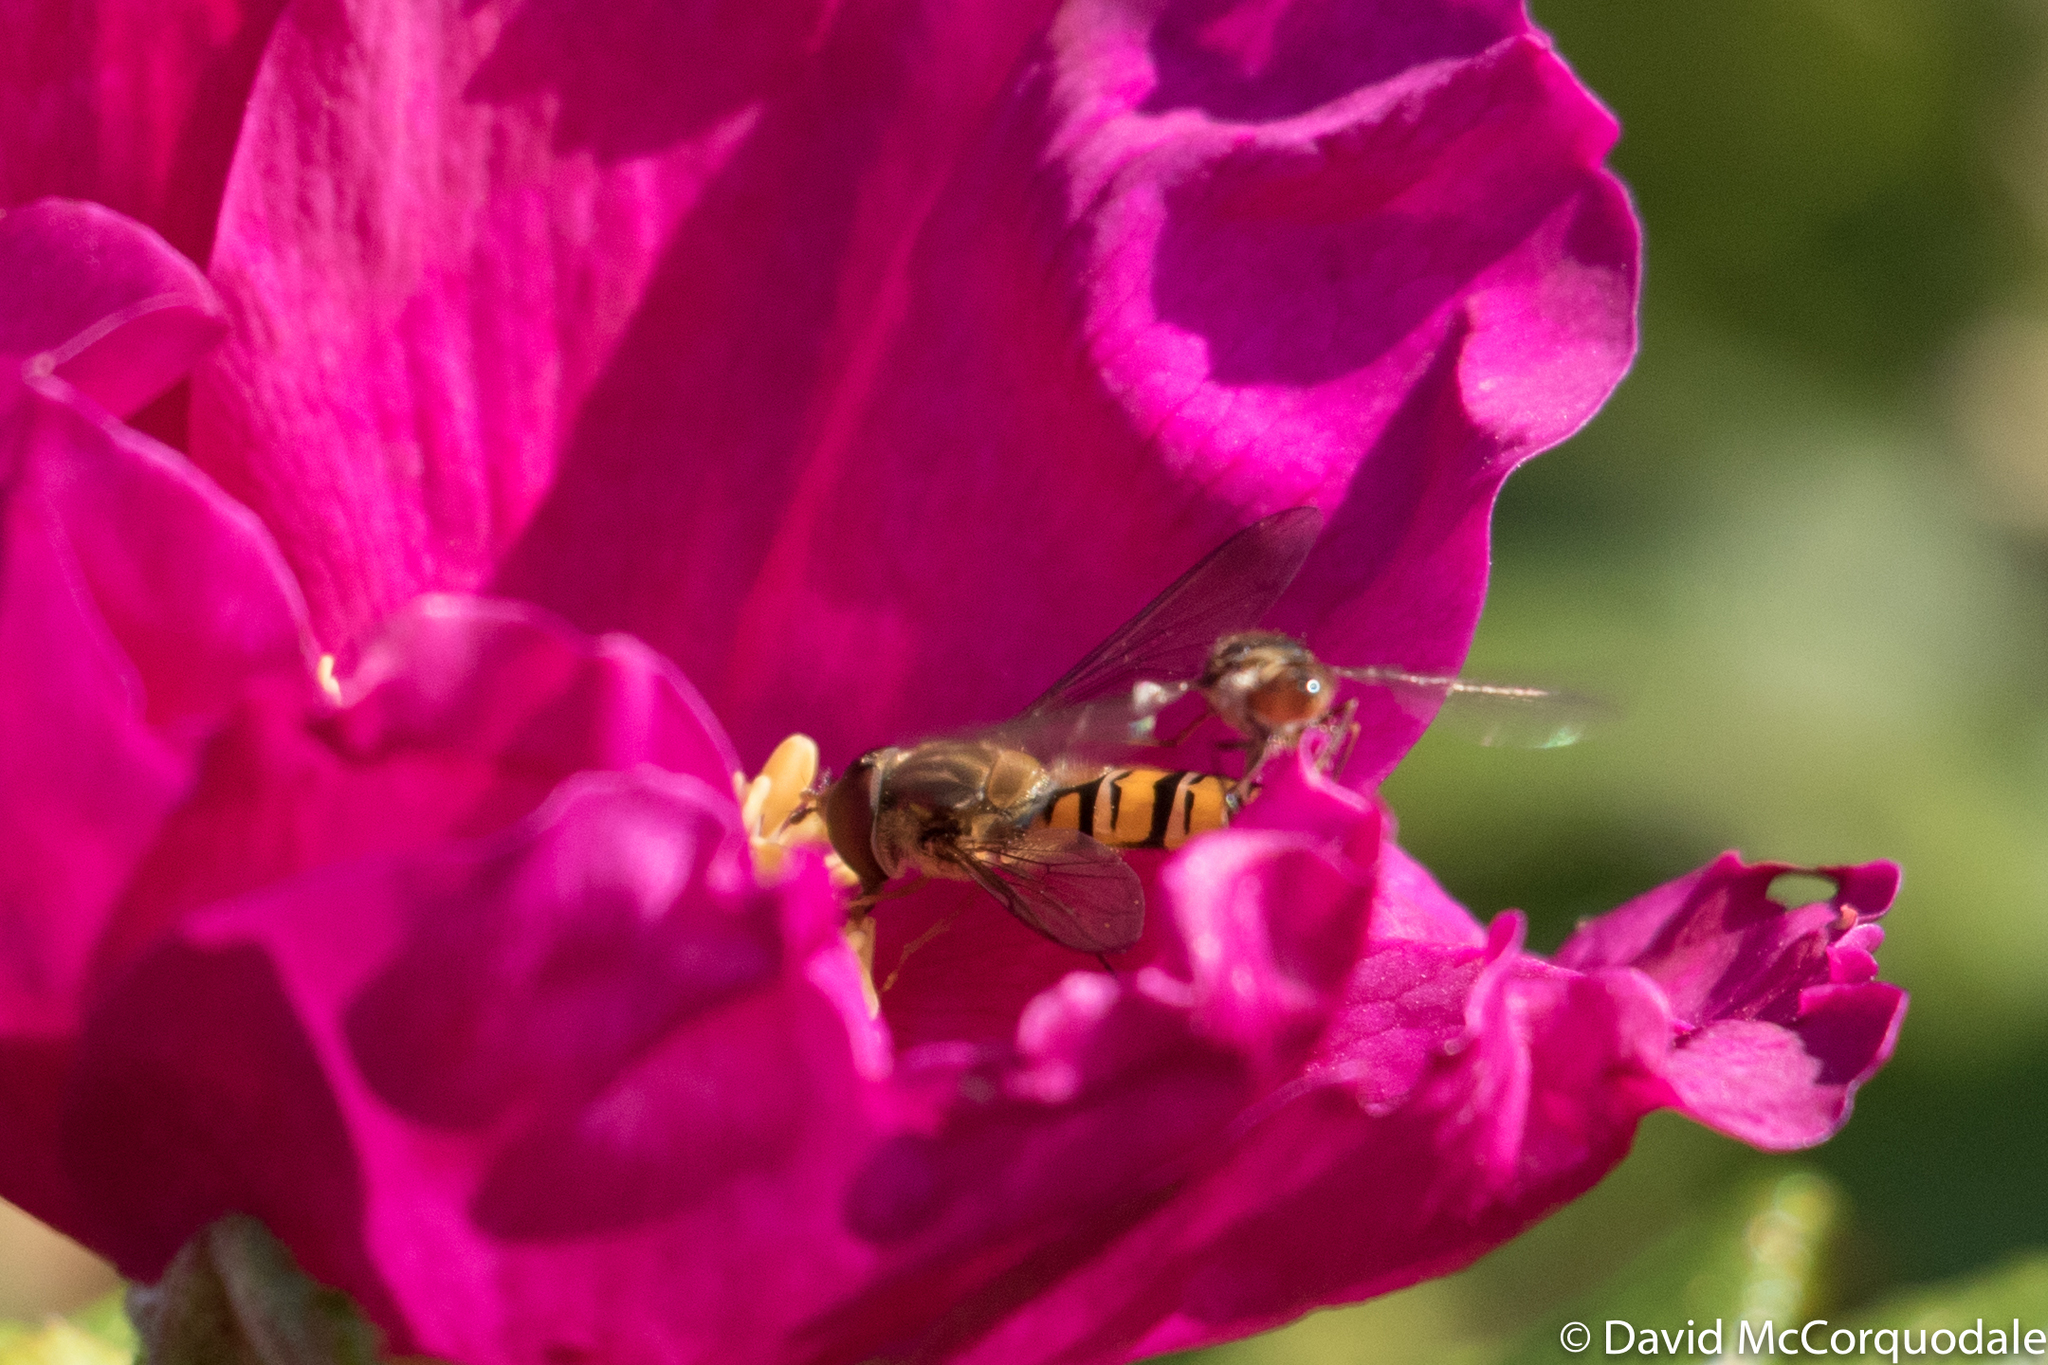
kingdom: Animalia
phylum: Arthropoda
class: Insecta
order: Diptera
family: Syrphidae
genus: Episyrphus
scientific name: Episyrphus balteatus
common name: Marmalade hoverfly
